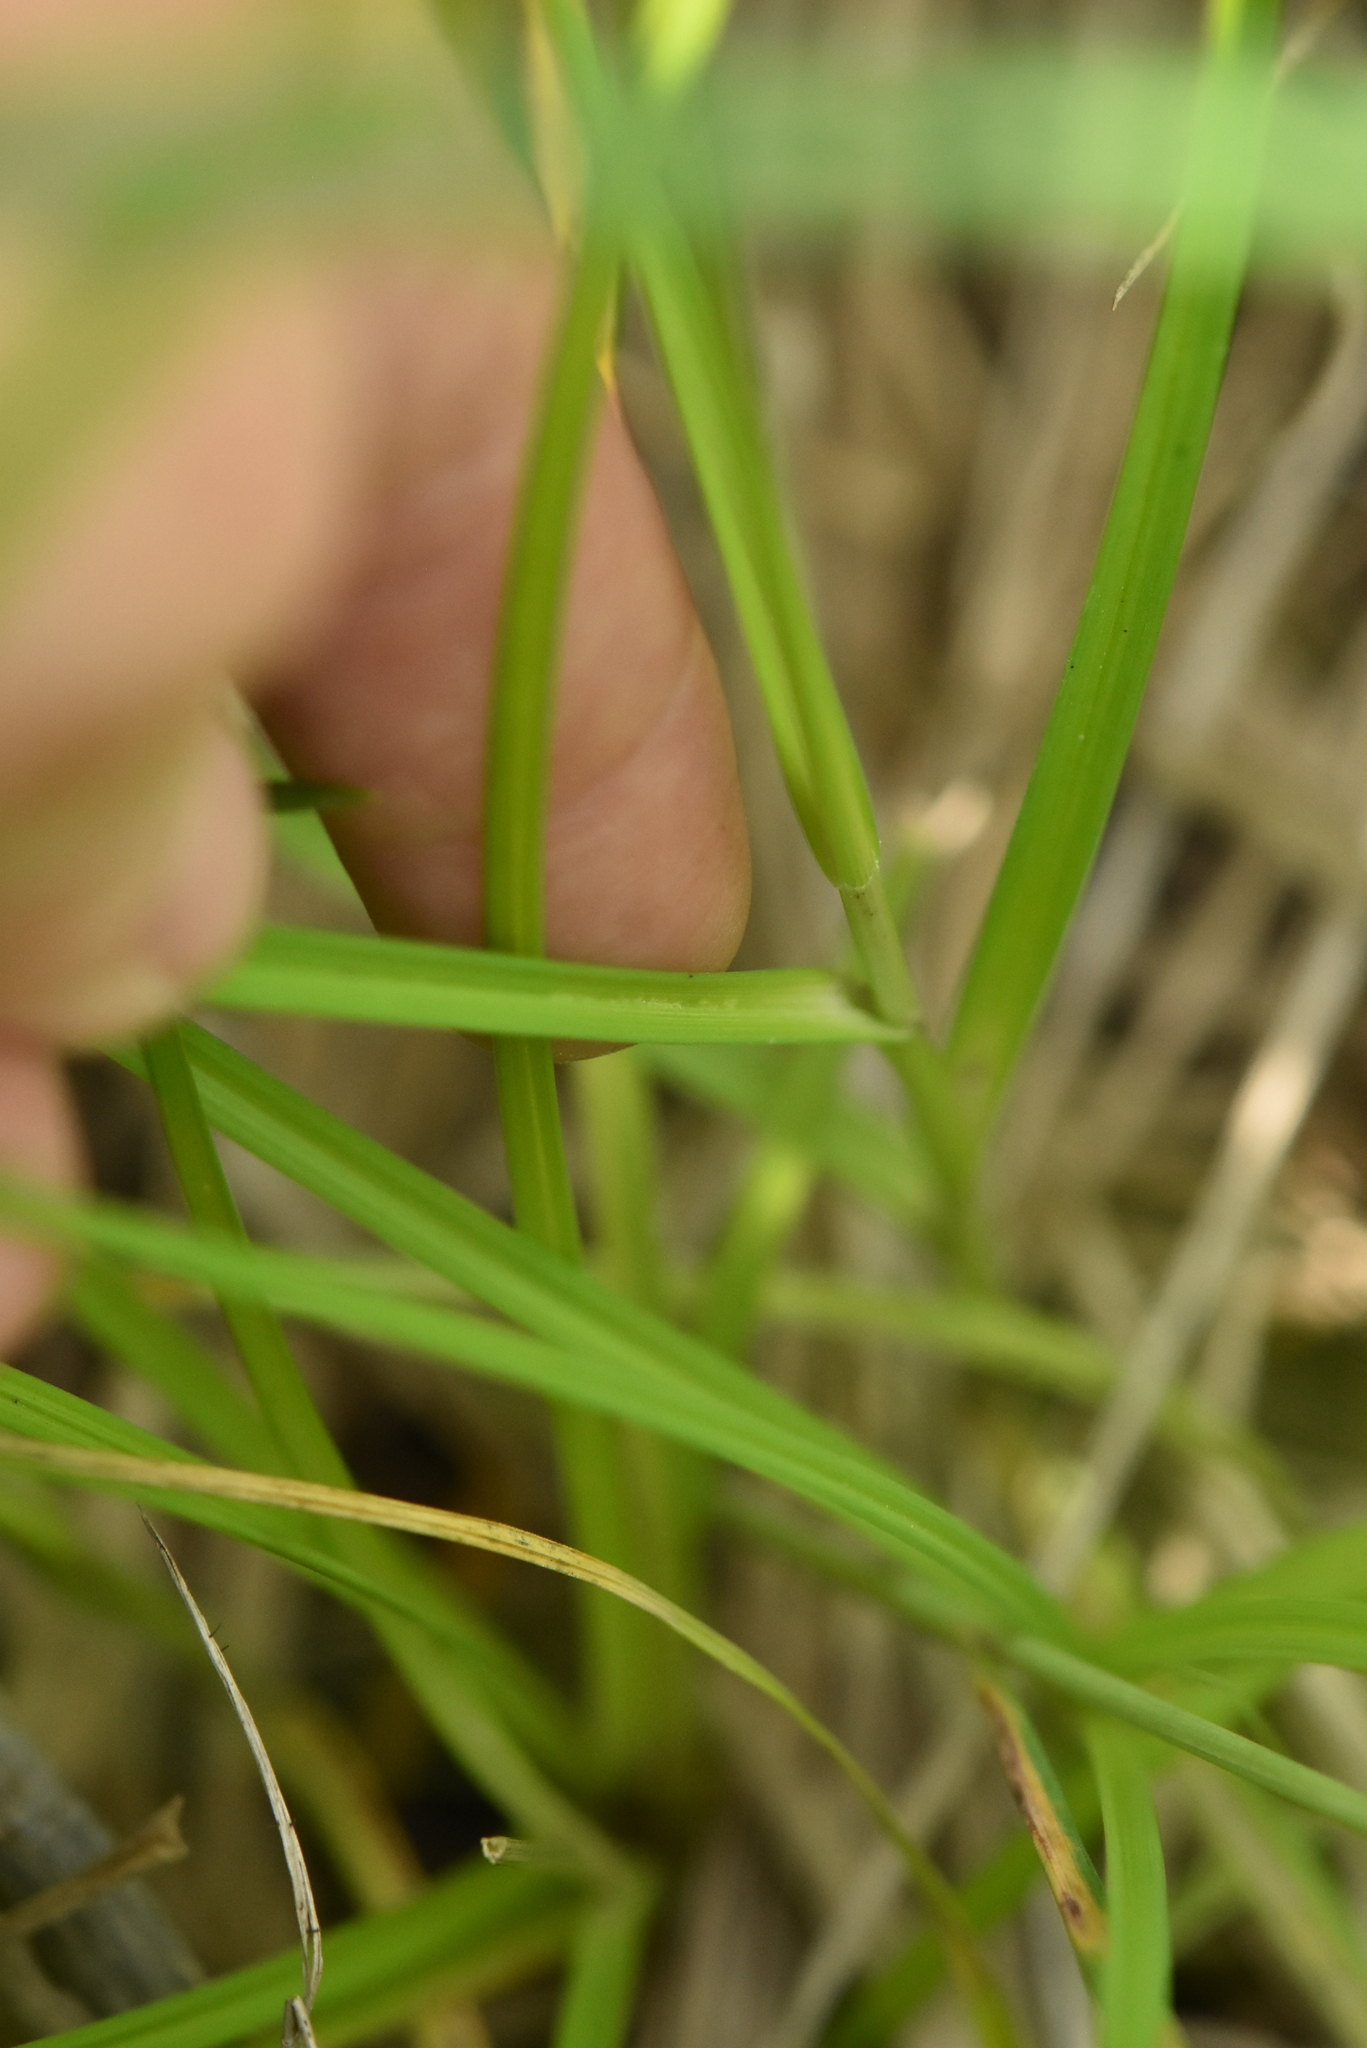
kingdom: Plantae
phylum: Tracheophyta
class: Liliopsida
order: Poales
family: Cyperaceae
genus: Carex
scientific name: Carex spicata
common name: Spiked sedge
